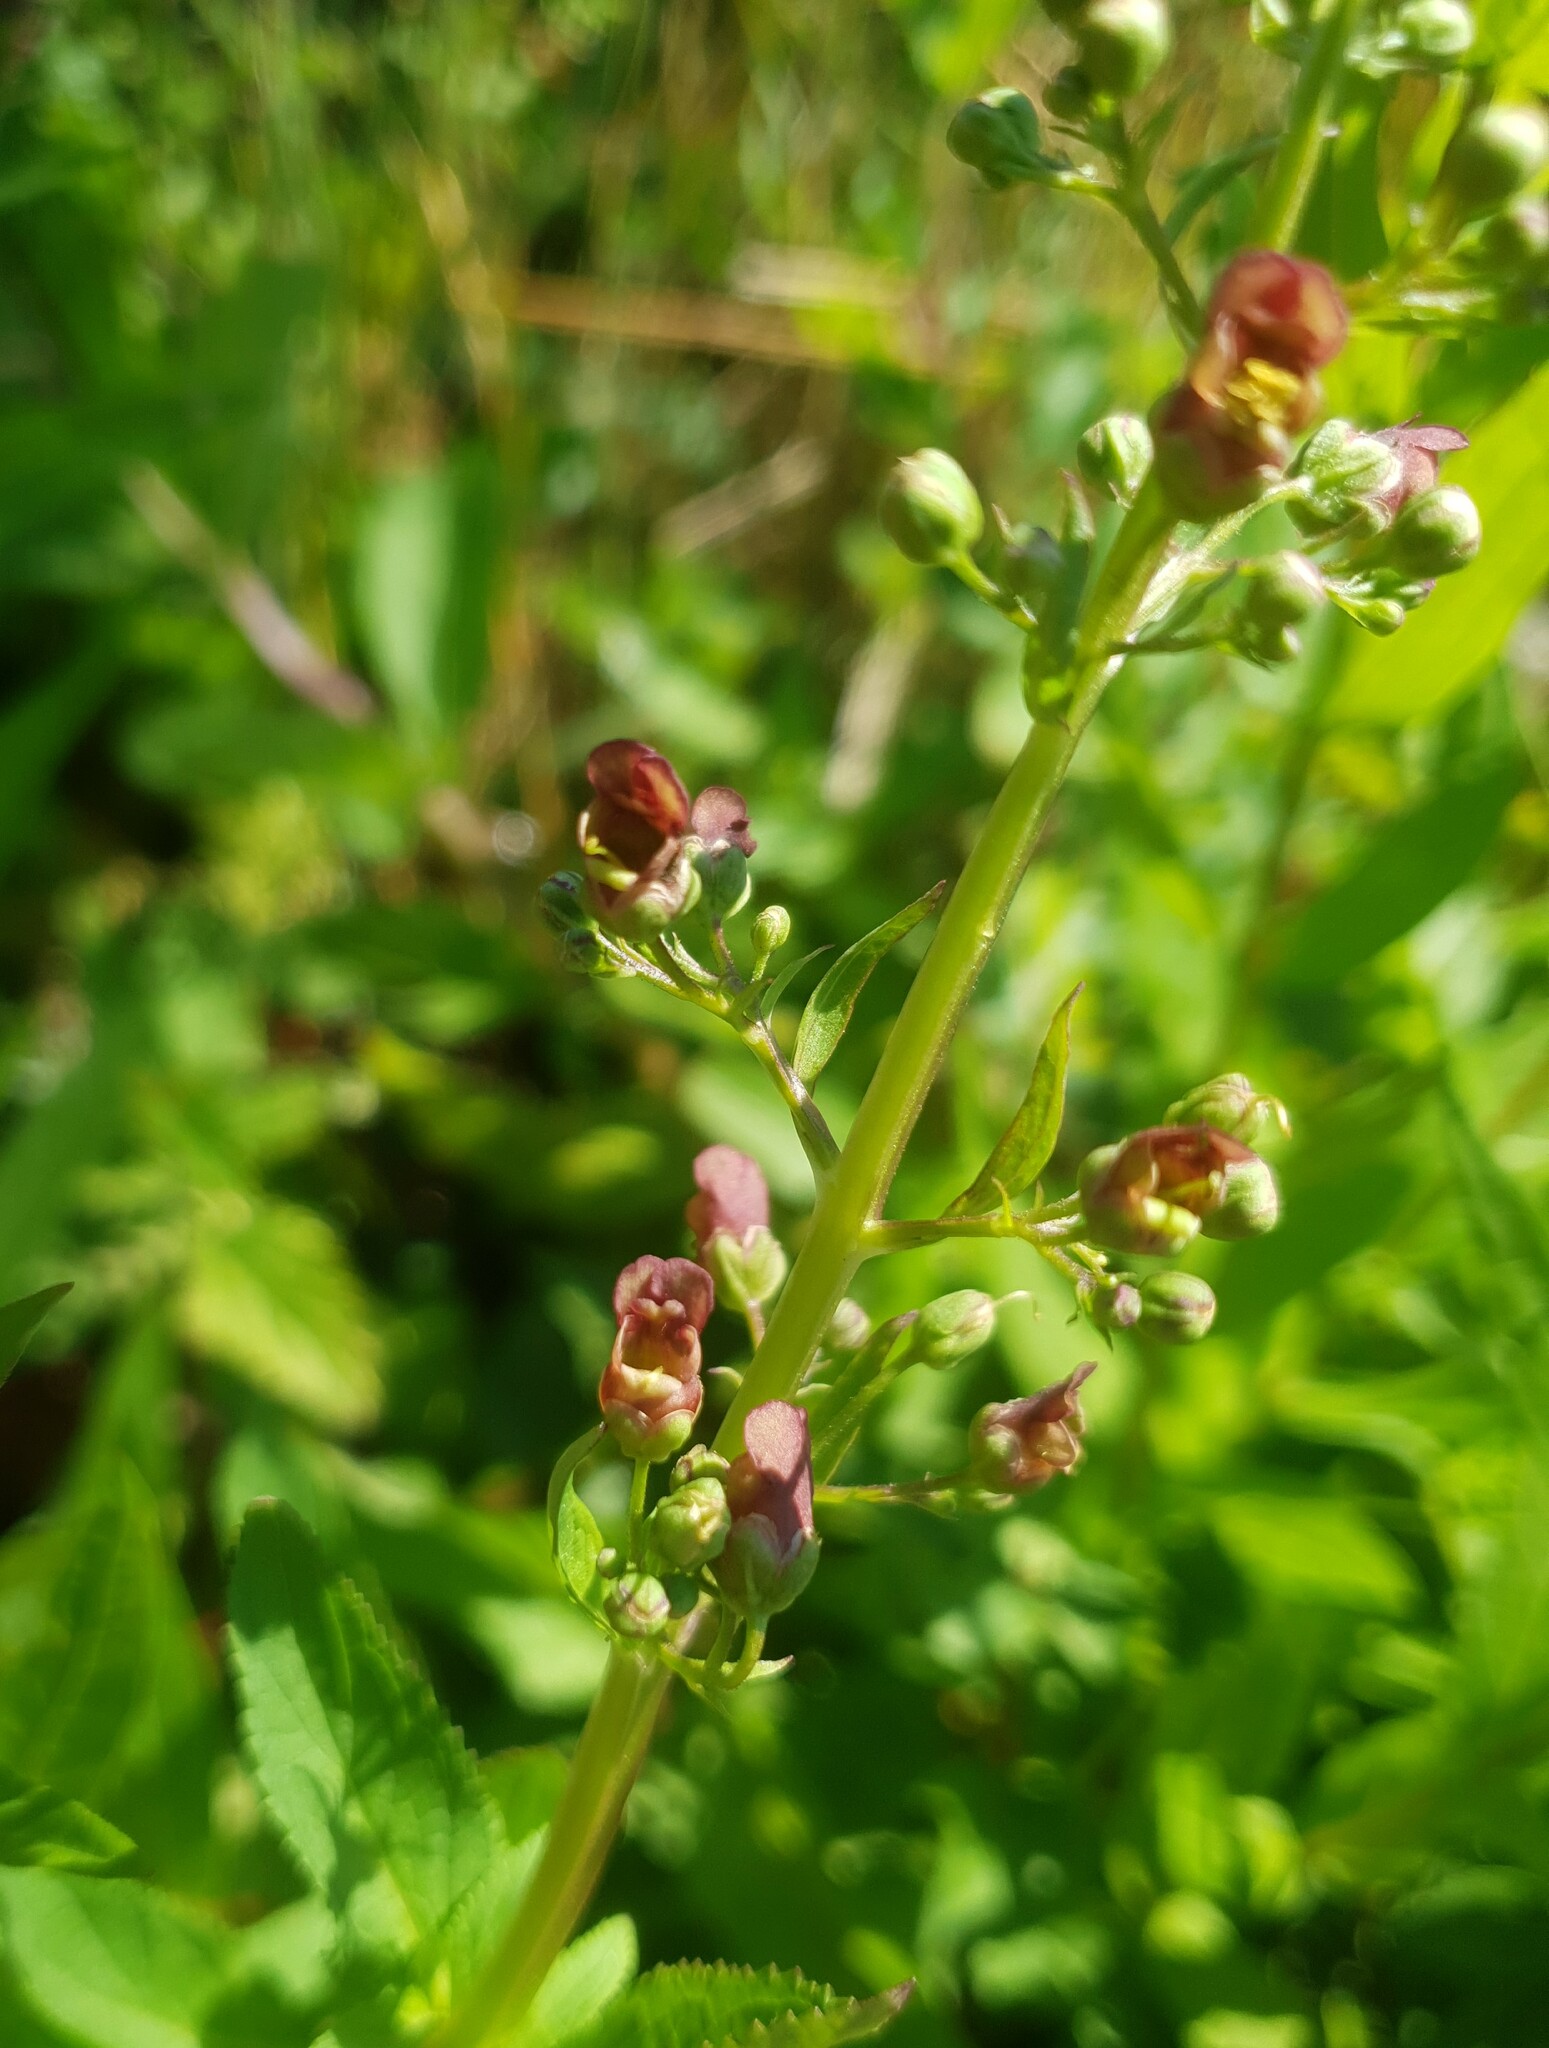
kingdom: Plantae
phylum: Tracheophyta
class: Magnoliopsida
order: Lamiales
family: Scrophulariaceae
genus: Scrophularia
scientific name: Scrophularia umbrosa
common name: Green figwort
